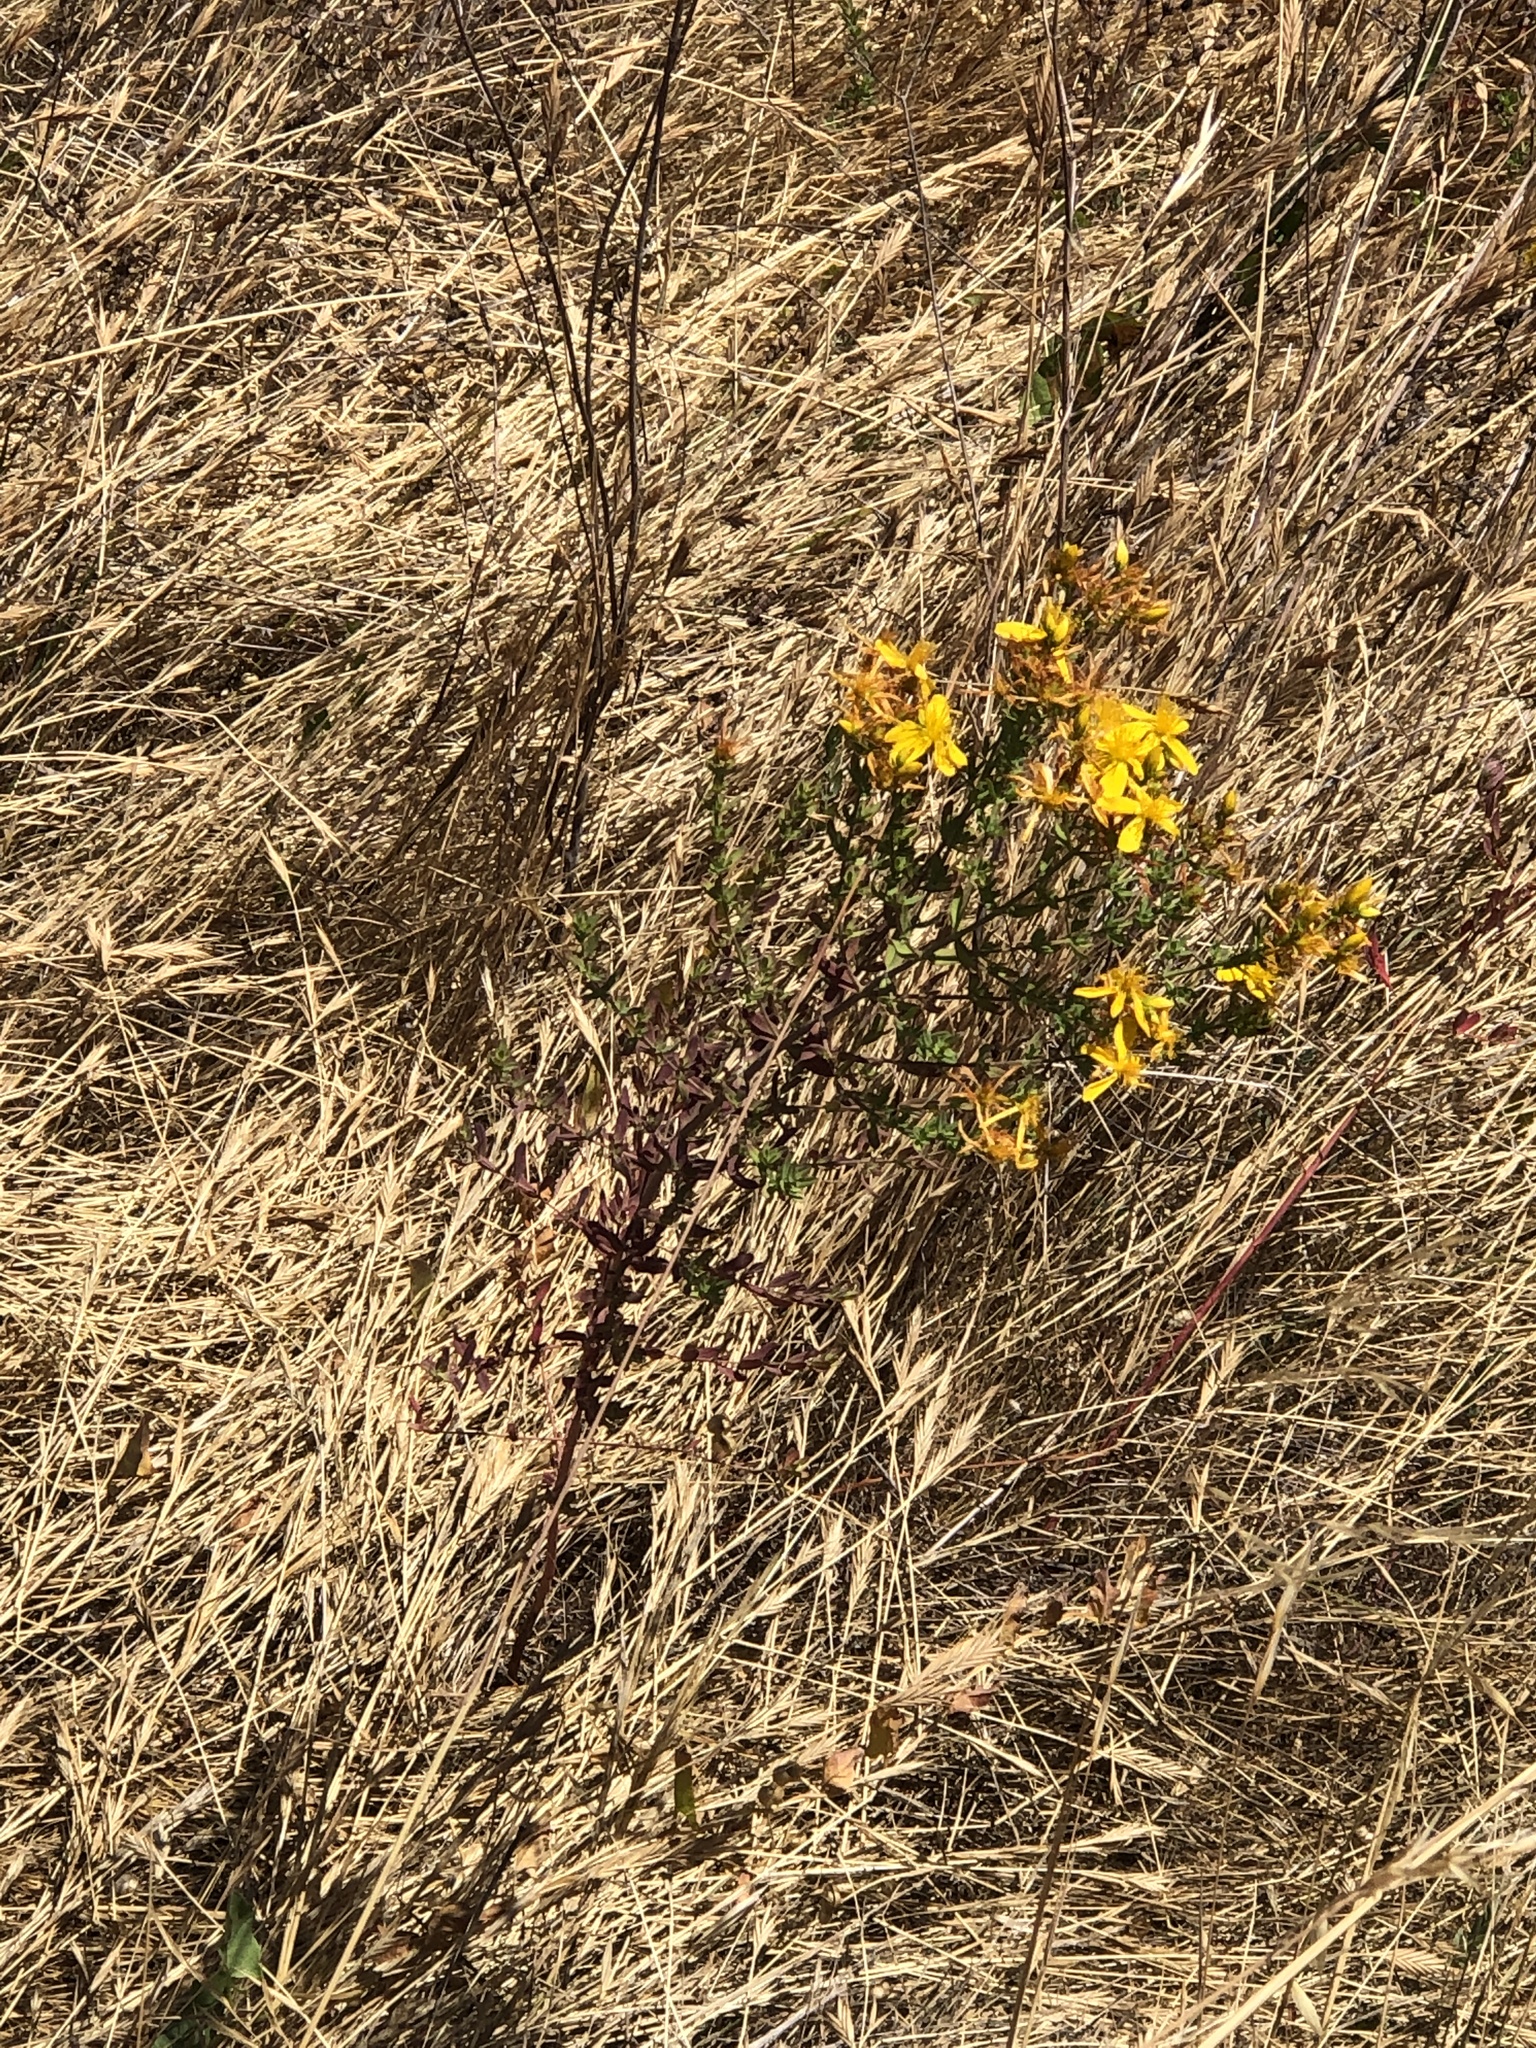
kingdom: Plantae
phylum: Tracheophyta
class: Magnoliopsida
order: Malpighiales
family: Hypericaceae
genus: Hypericum
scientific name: Hypericum perforatum
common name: Common st. johnswort
